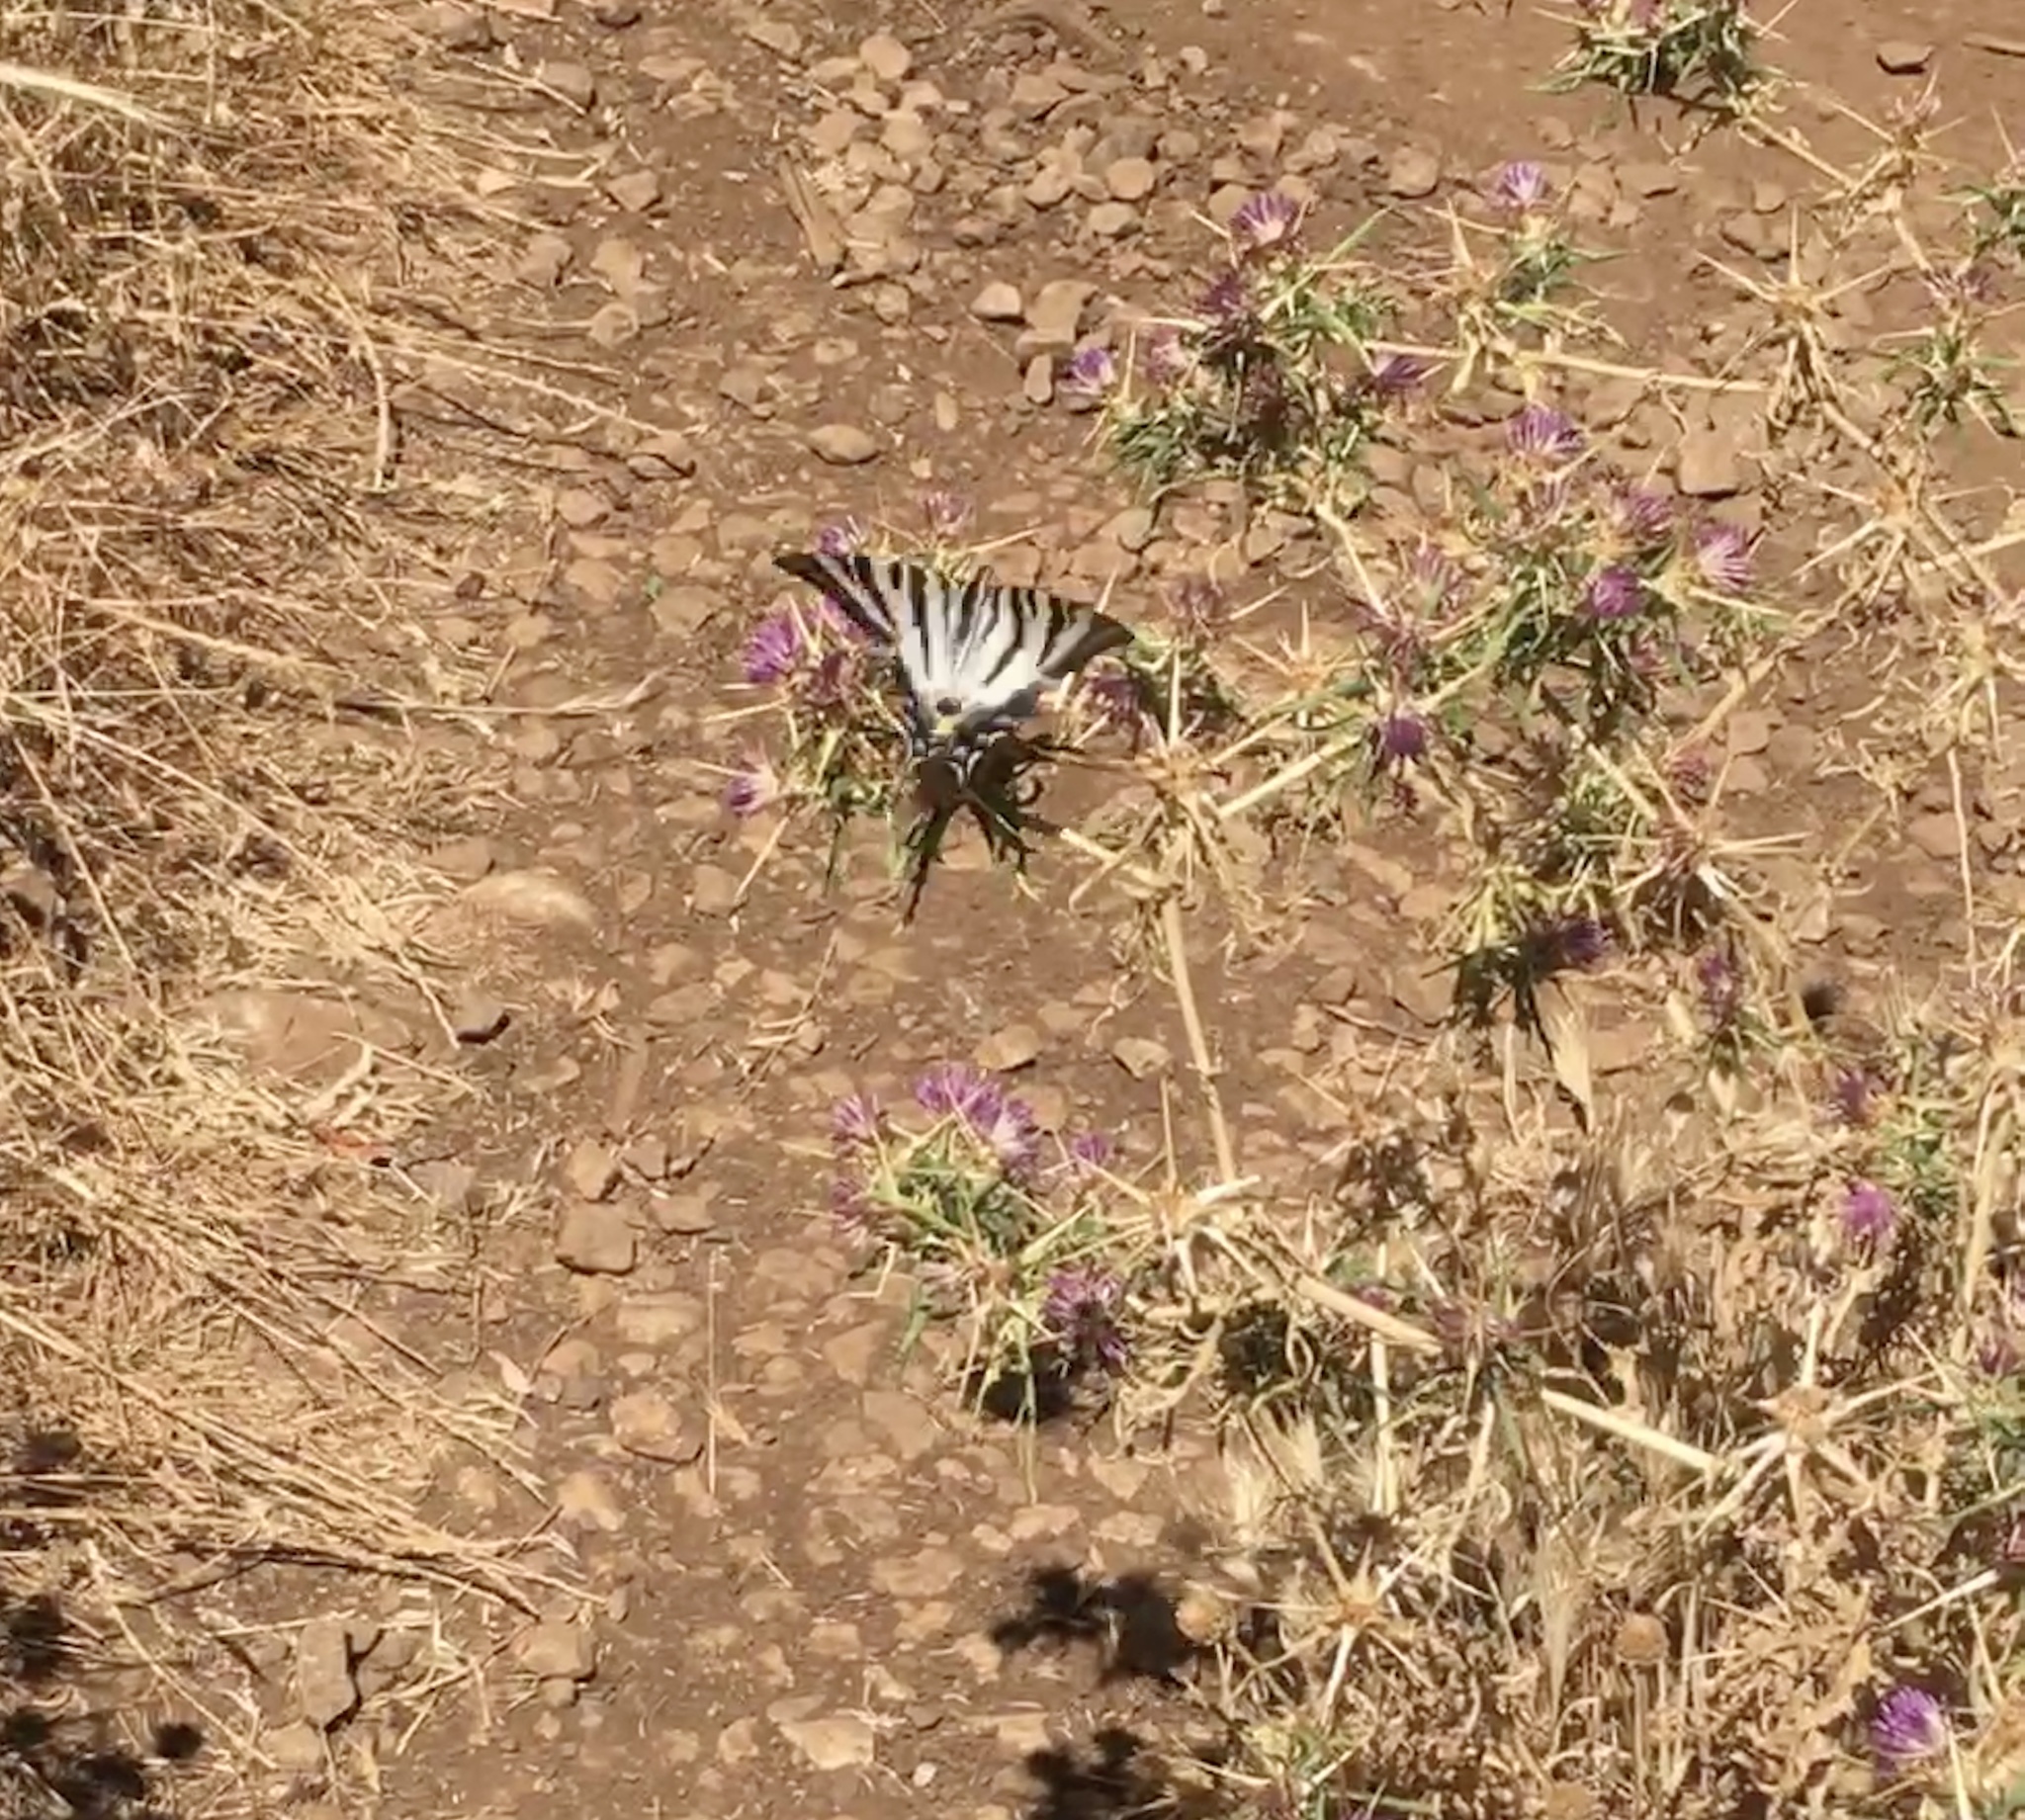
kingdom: Animalia
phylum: Arthropoda
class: Insecta
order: Lepidoptera
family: Papilionidae
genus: Iphiclides
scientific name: Iphiclides feisthamelii
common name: Iberian scarce swallowtail
